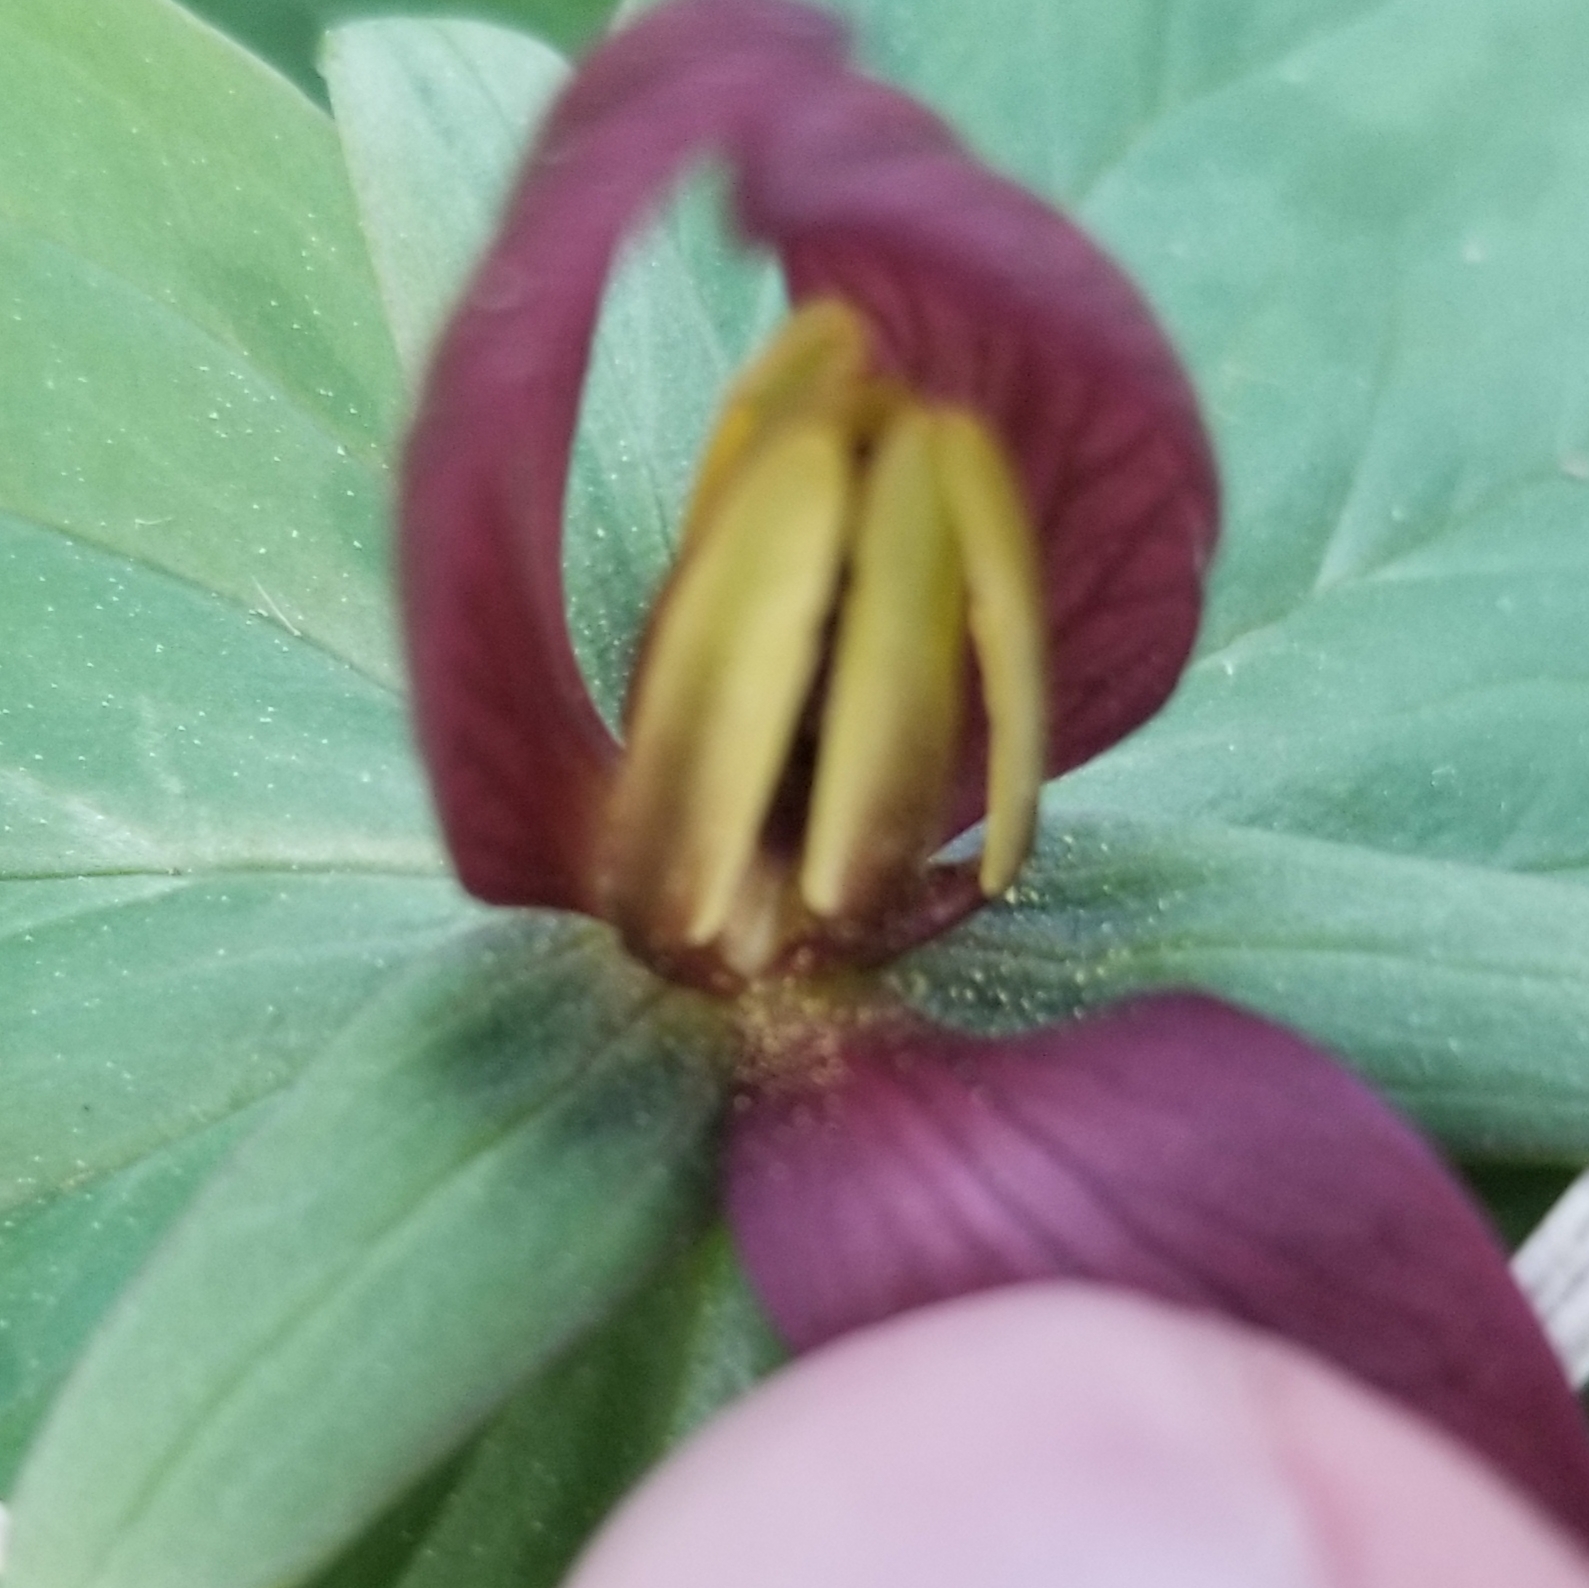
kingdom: Plantae
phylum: Tracheophyta
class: Liliopsida
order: Liliales
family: Melanthiaceae
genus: Trillium
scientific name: Trillium sessile
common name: Sessile trillium
